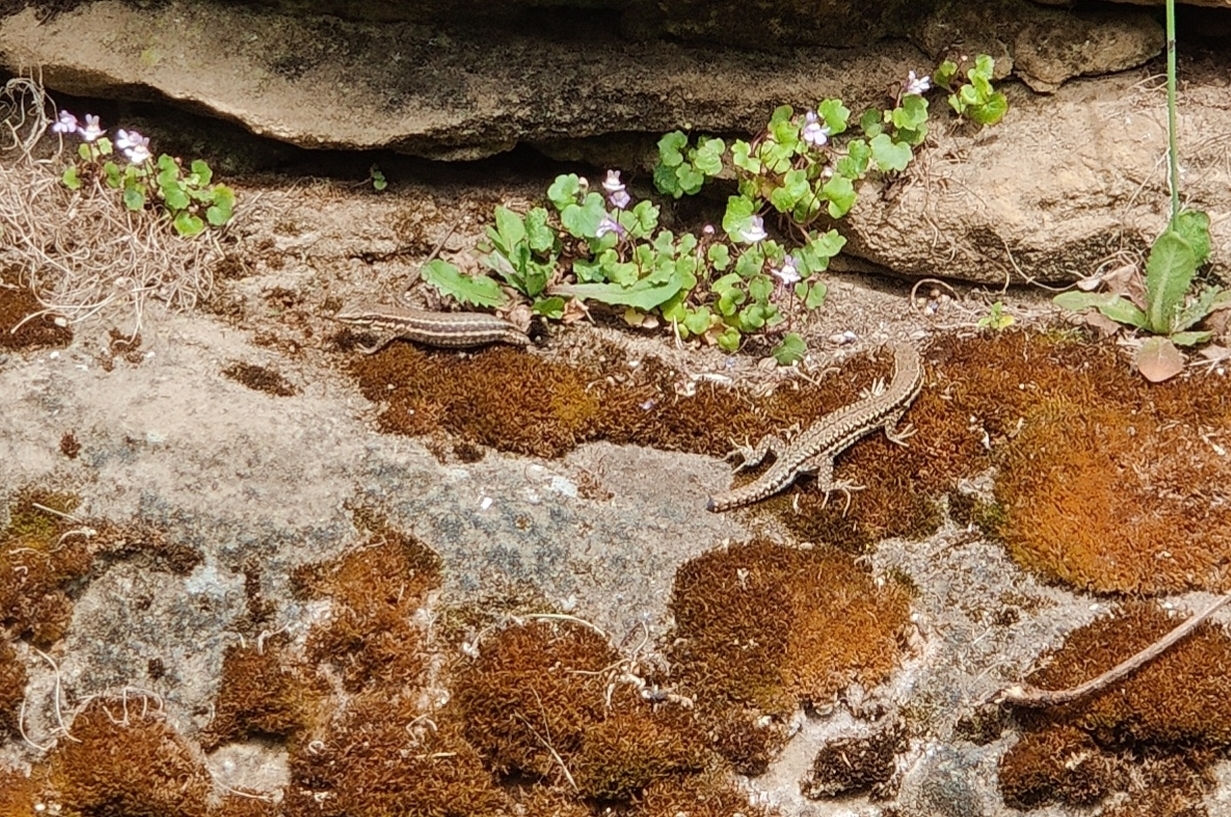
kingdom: Animalia
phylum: Chordata
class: Squamata
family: Lacertidae
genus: Podarcis
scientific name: Podarcis muralis
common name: Common wall lizard
